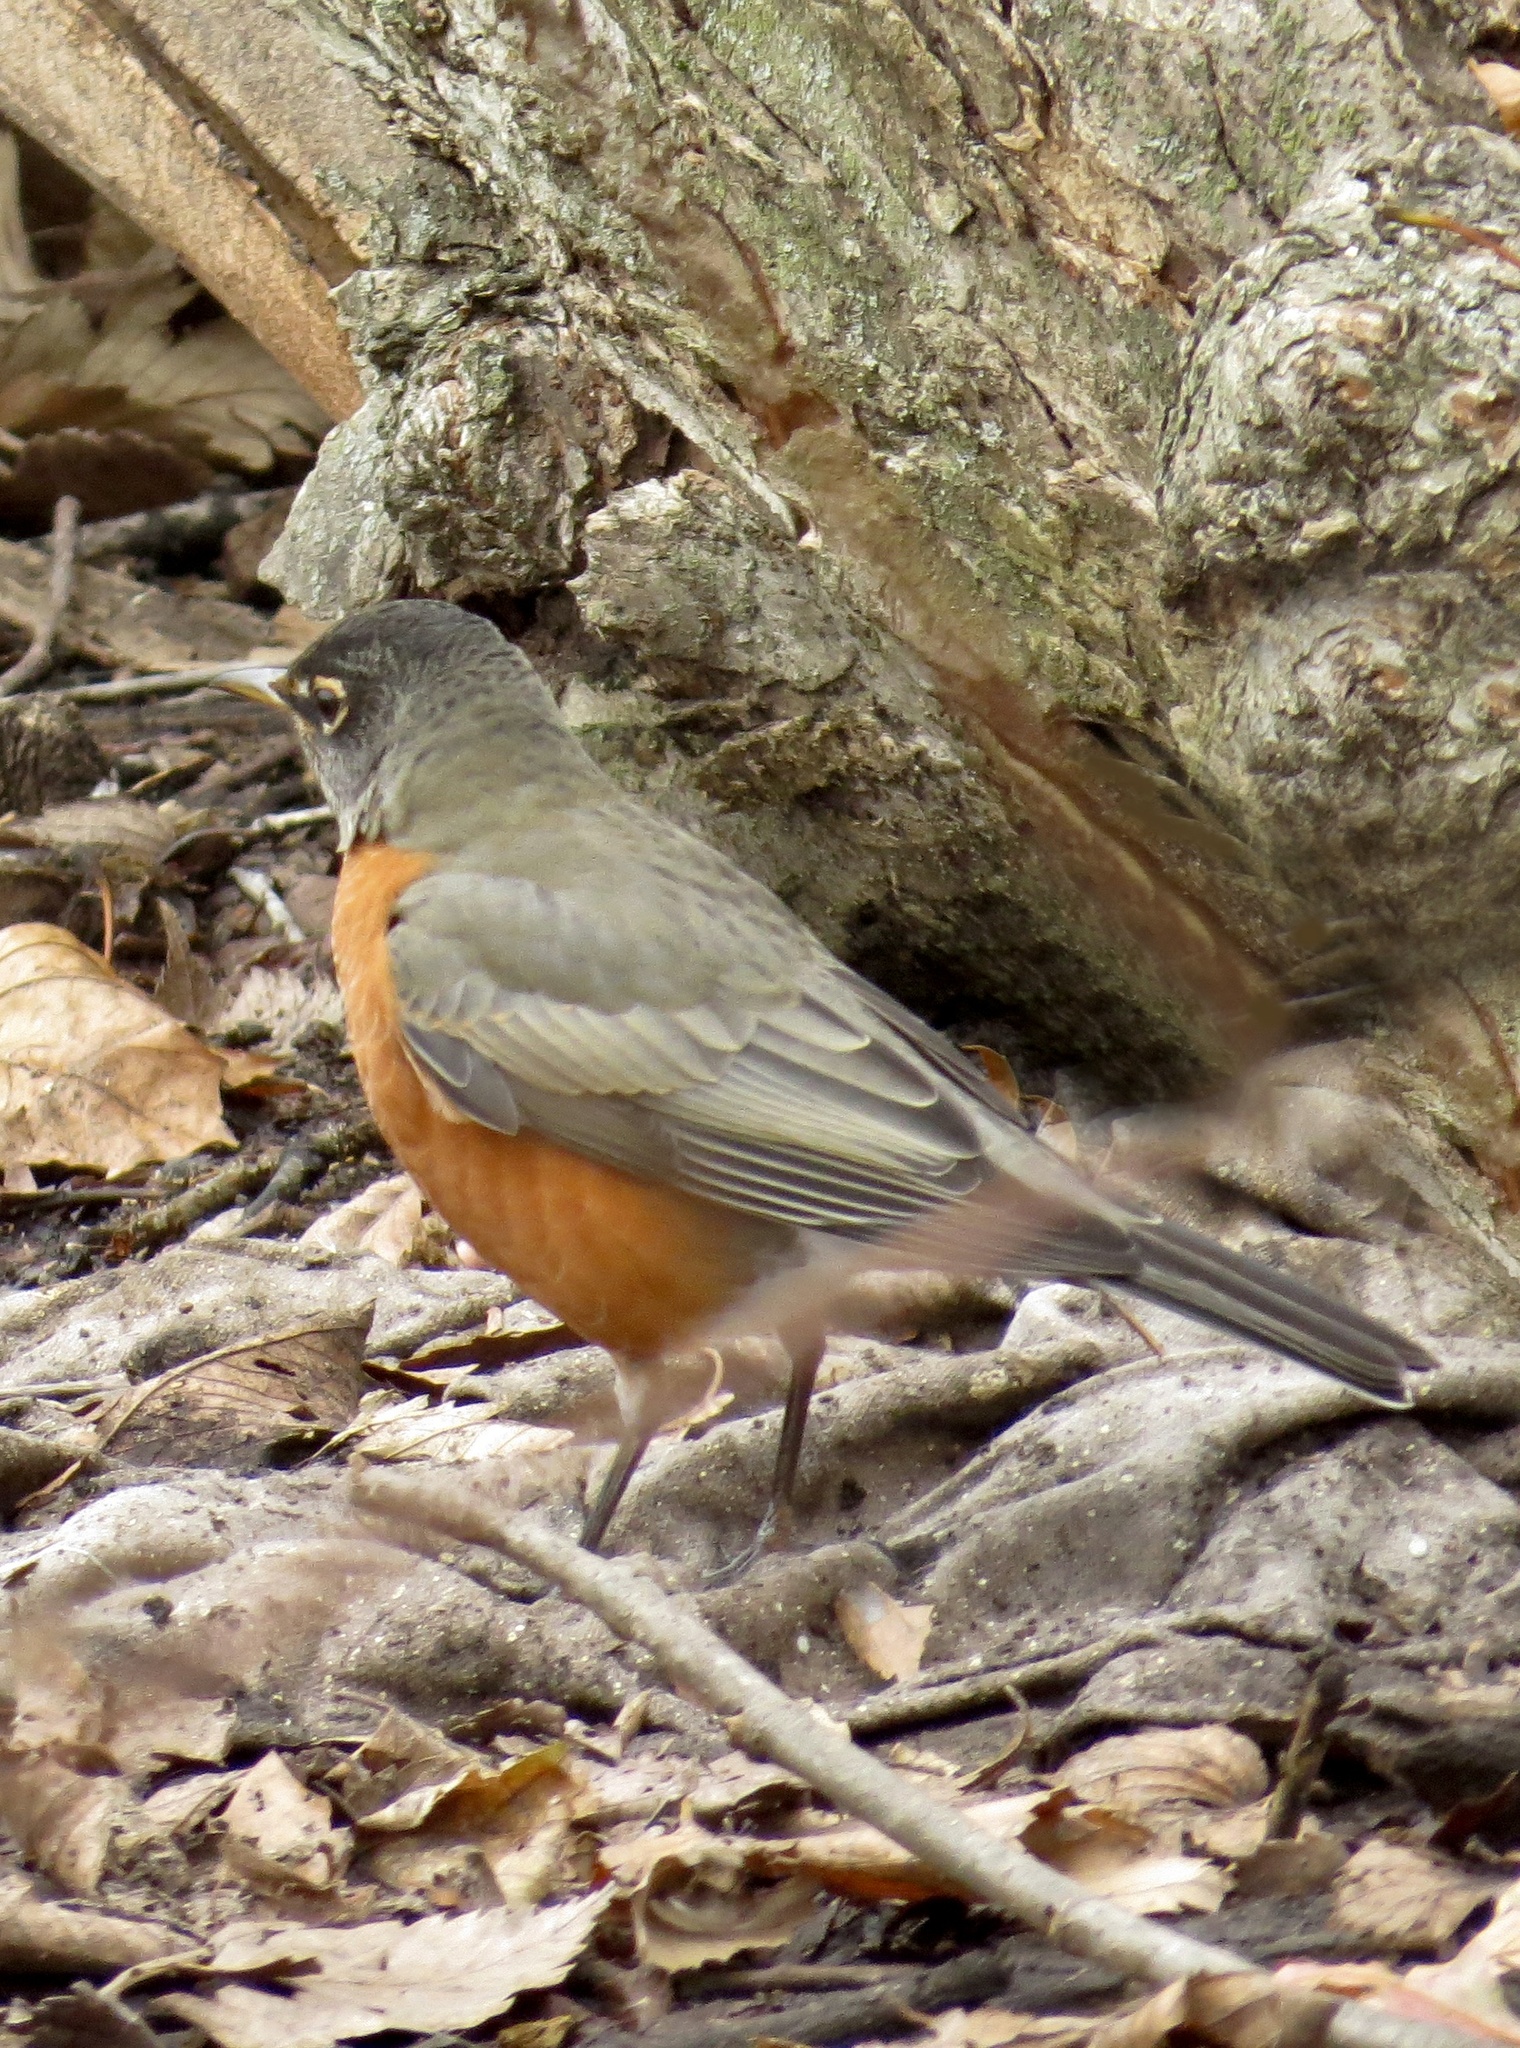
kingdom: Animalia
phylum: Chordata
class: Aves
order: Passeriformes
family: Turdidae
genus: Turdus
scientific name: Turdus migratorius
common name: American robin
